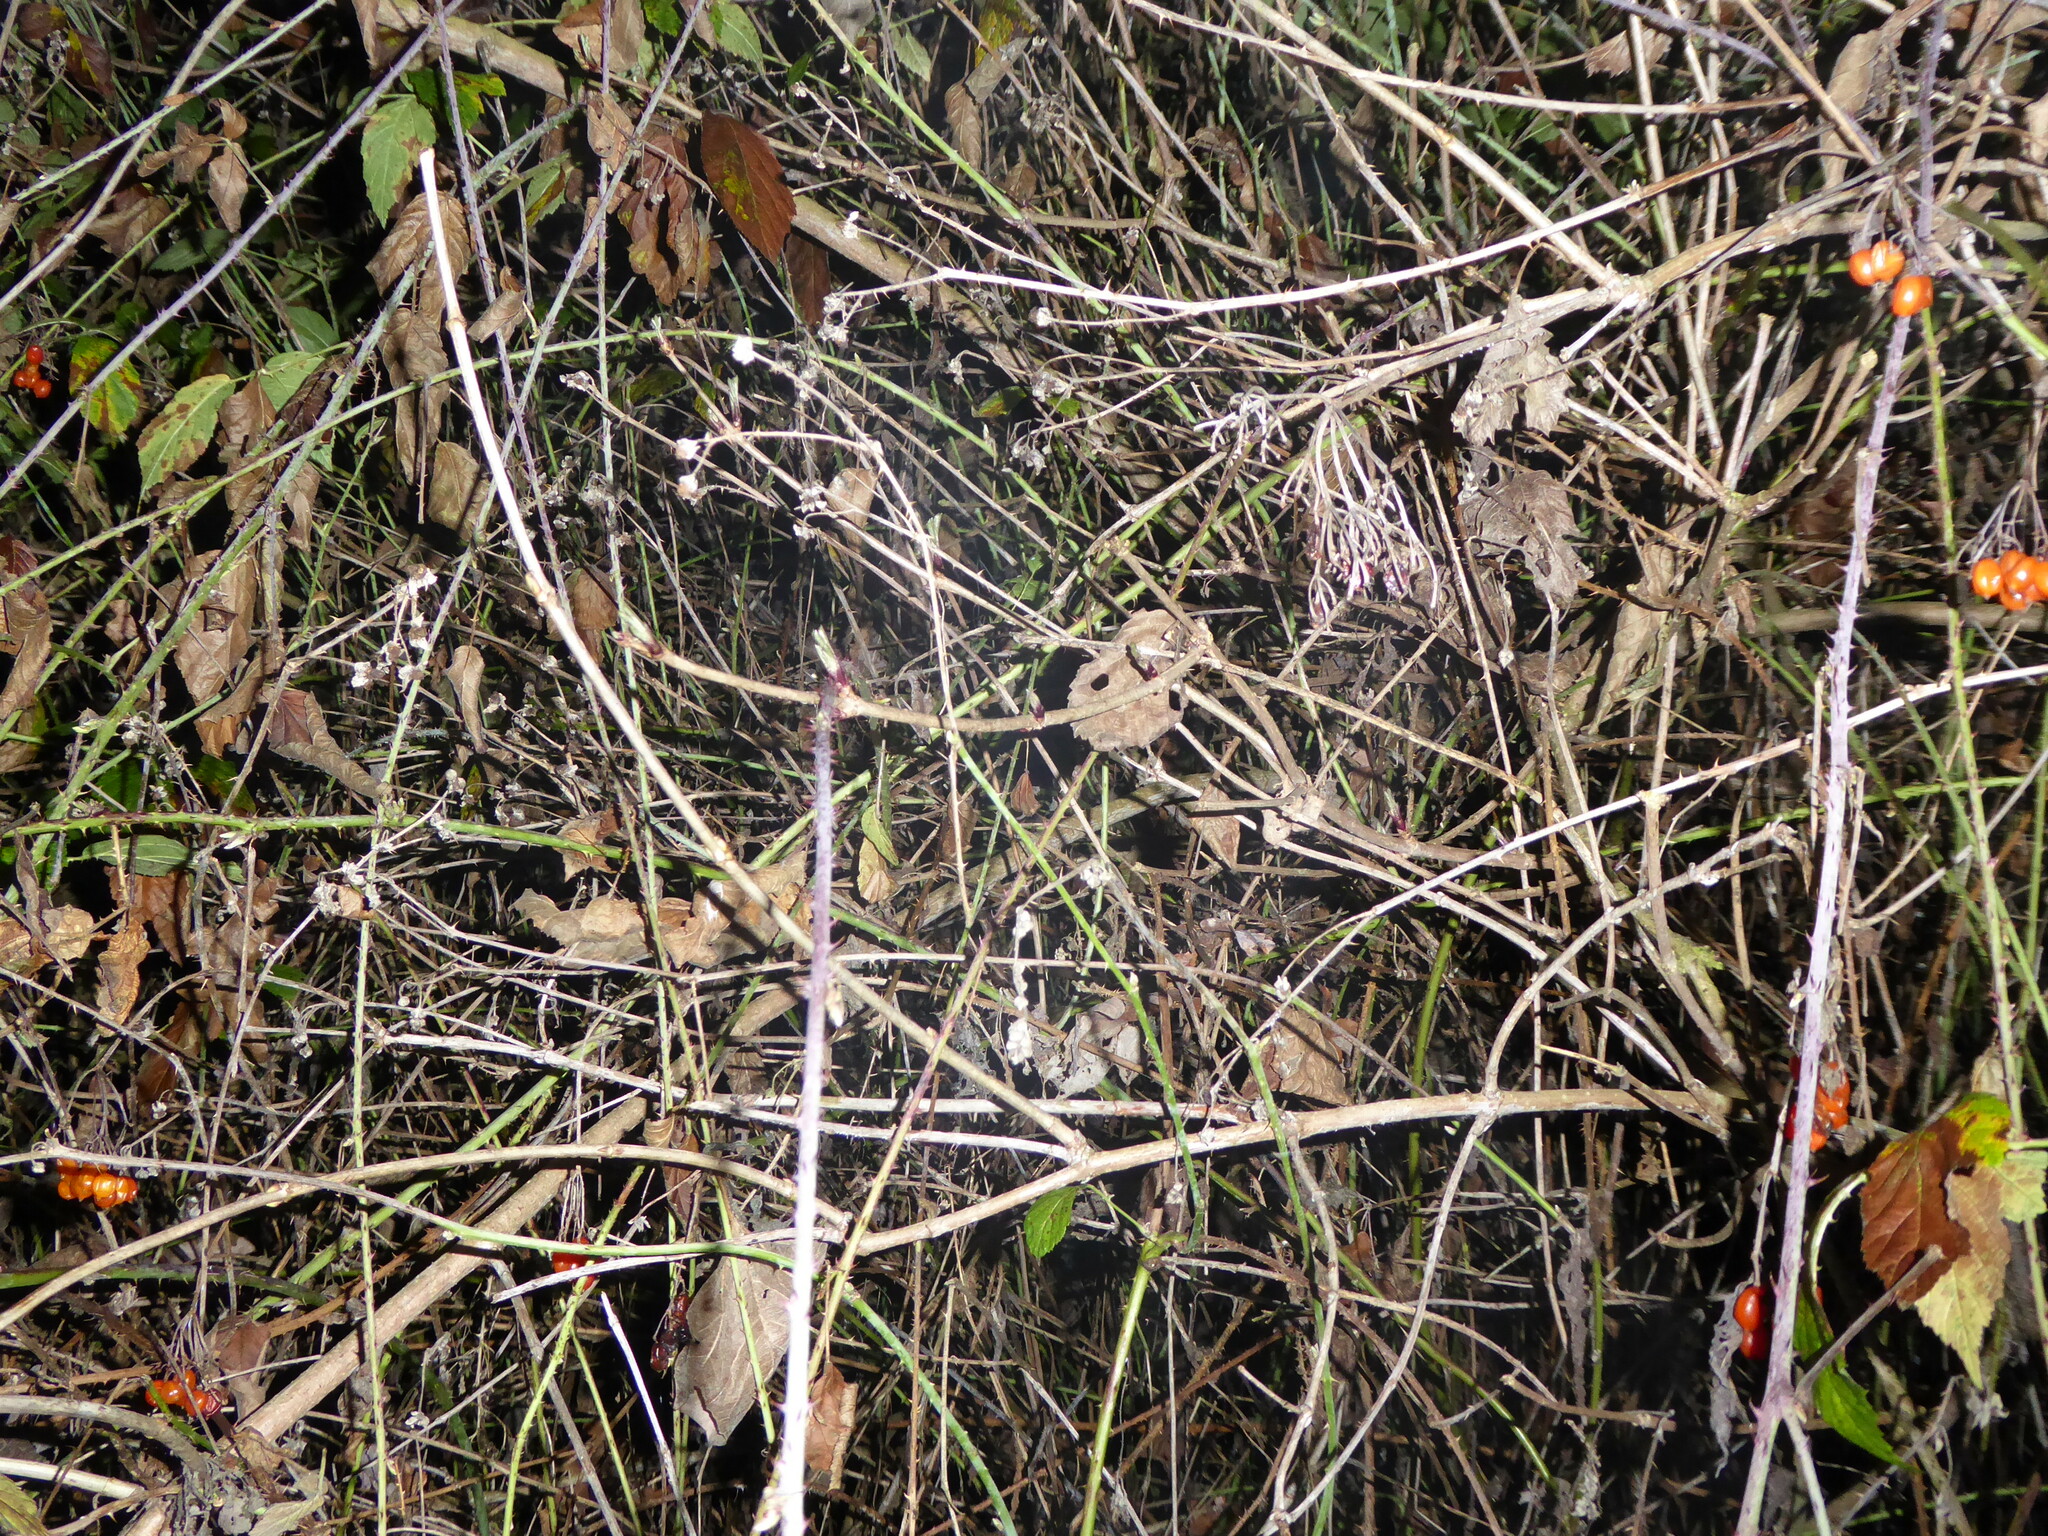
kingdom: Plantae
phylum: Tracheophyta
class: Magnoliopsida
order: Solanales
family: Solanaceae
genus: Solanum
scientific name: Solanum dulcamara
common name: Climbing nightshade
